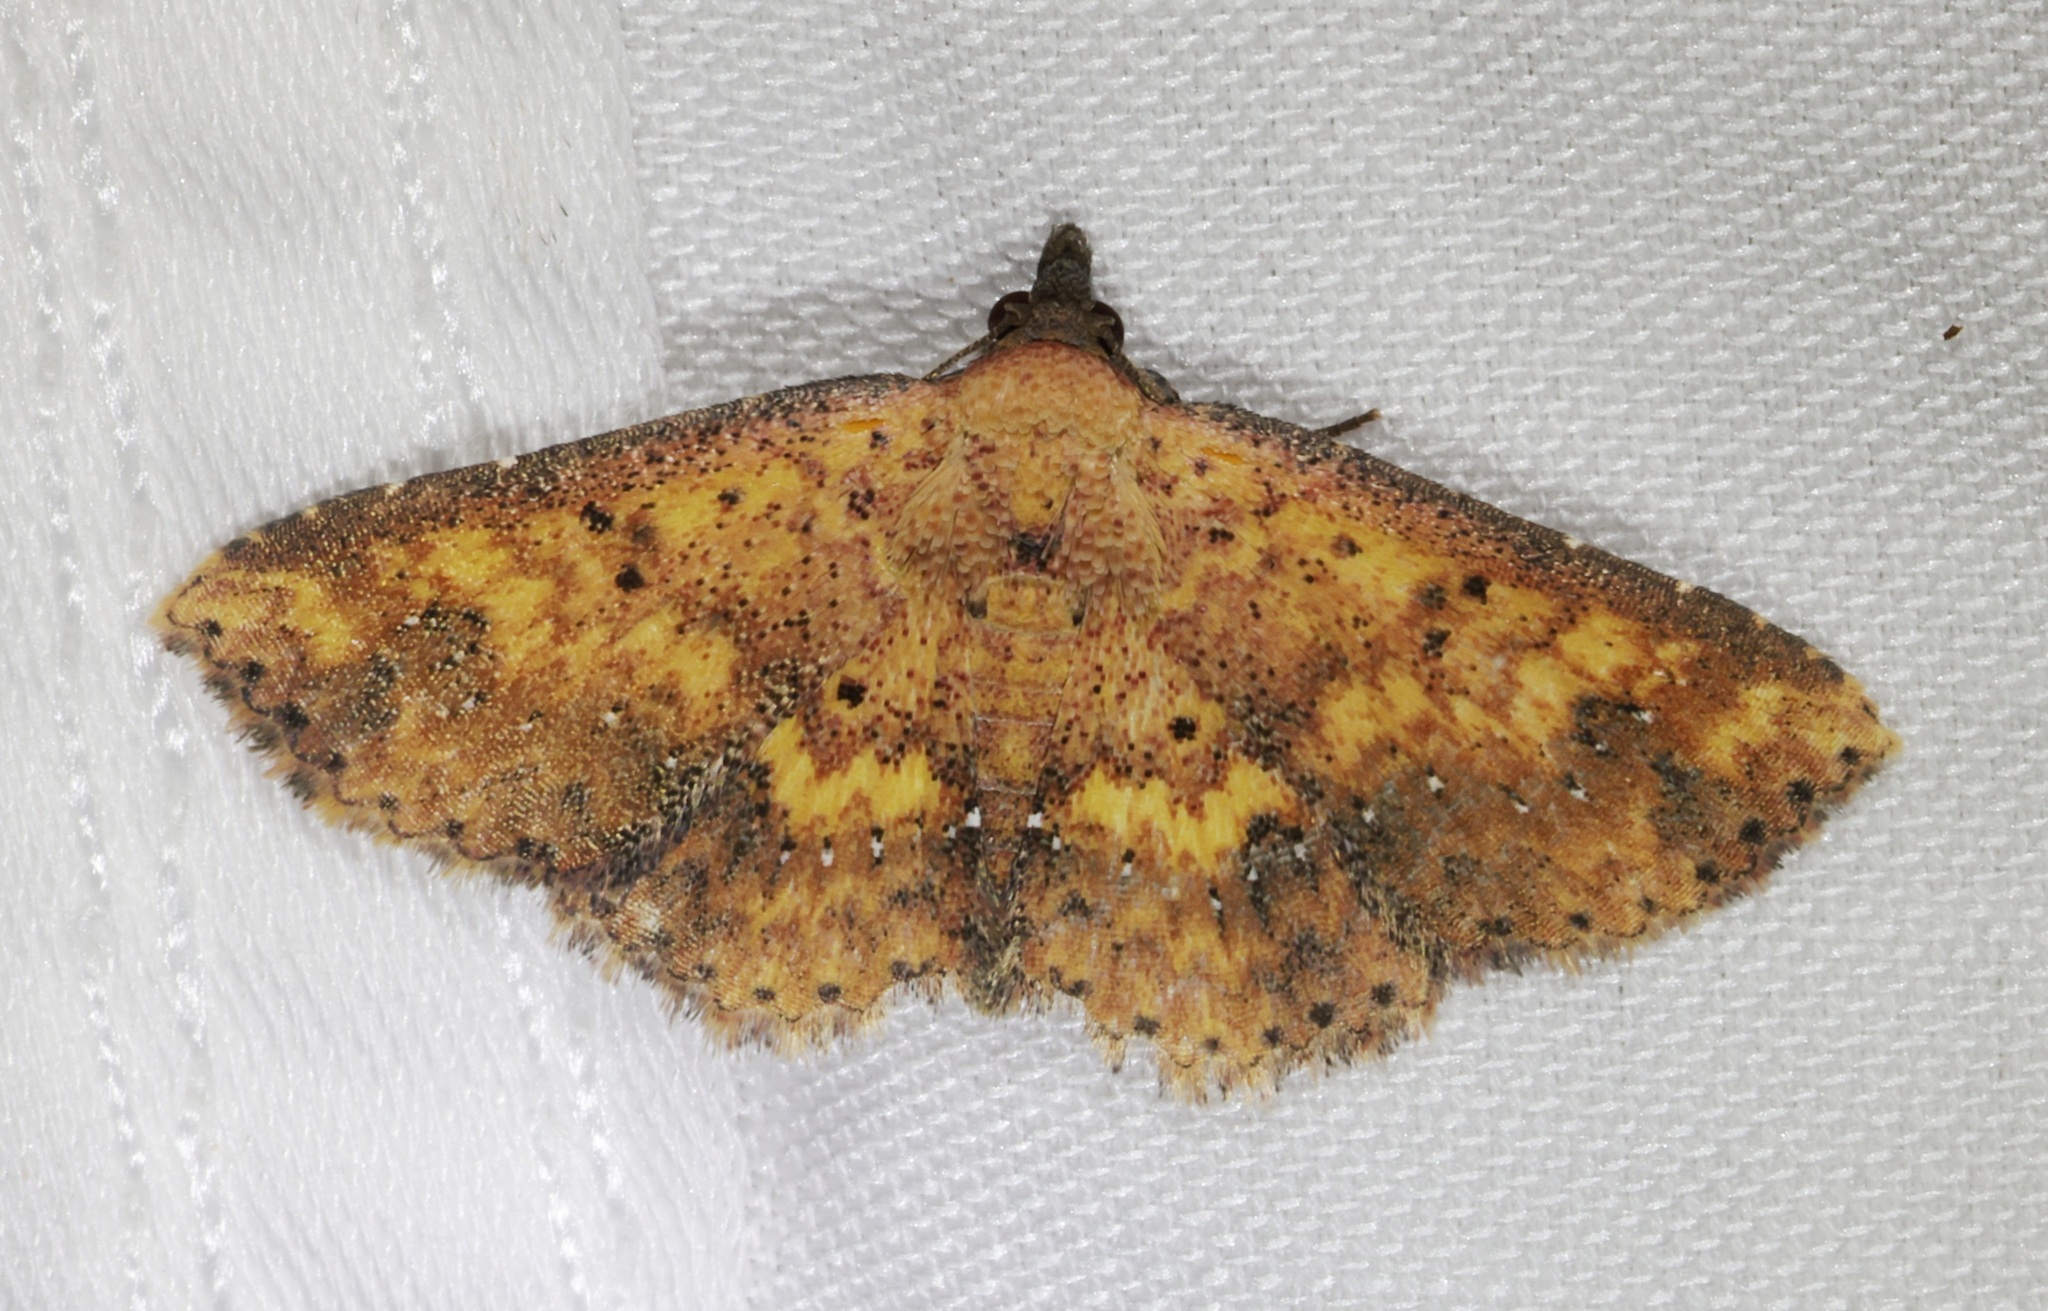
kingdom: Animalia
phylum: Arthropoda
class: Insecta
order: Lepidoptera
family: Noctuidae
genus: Cerynea
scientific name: Cerynea ustula
